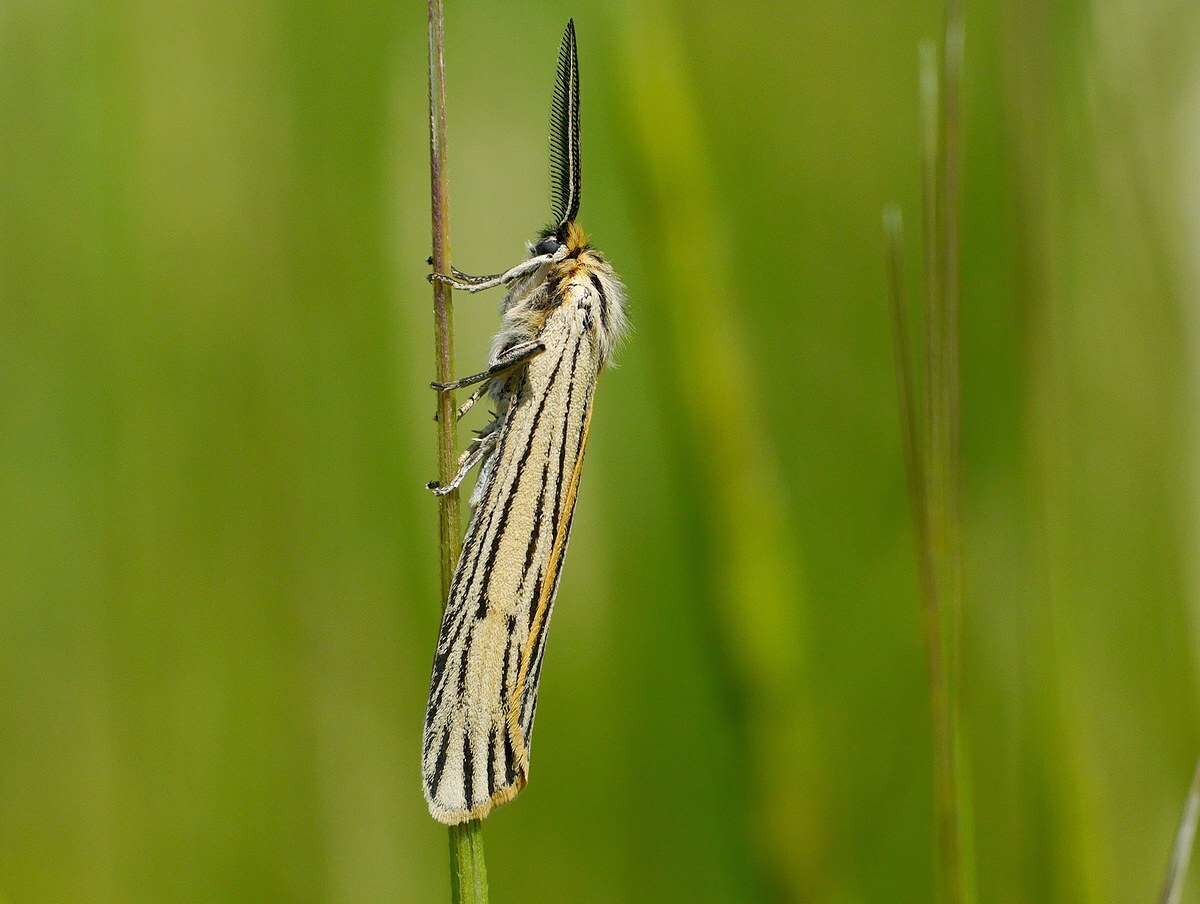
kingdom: Animalia
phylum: Arthropoda
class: Insecta
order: Lepidoptera
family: Erebidae
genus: Coscinia
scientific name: Coscinia Spiris striata
